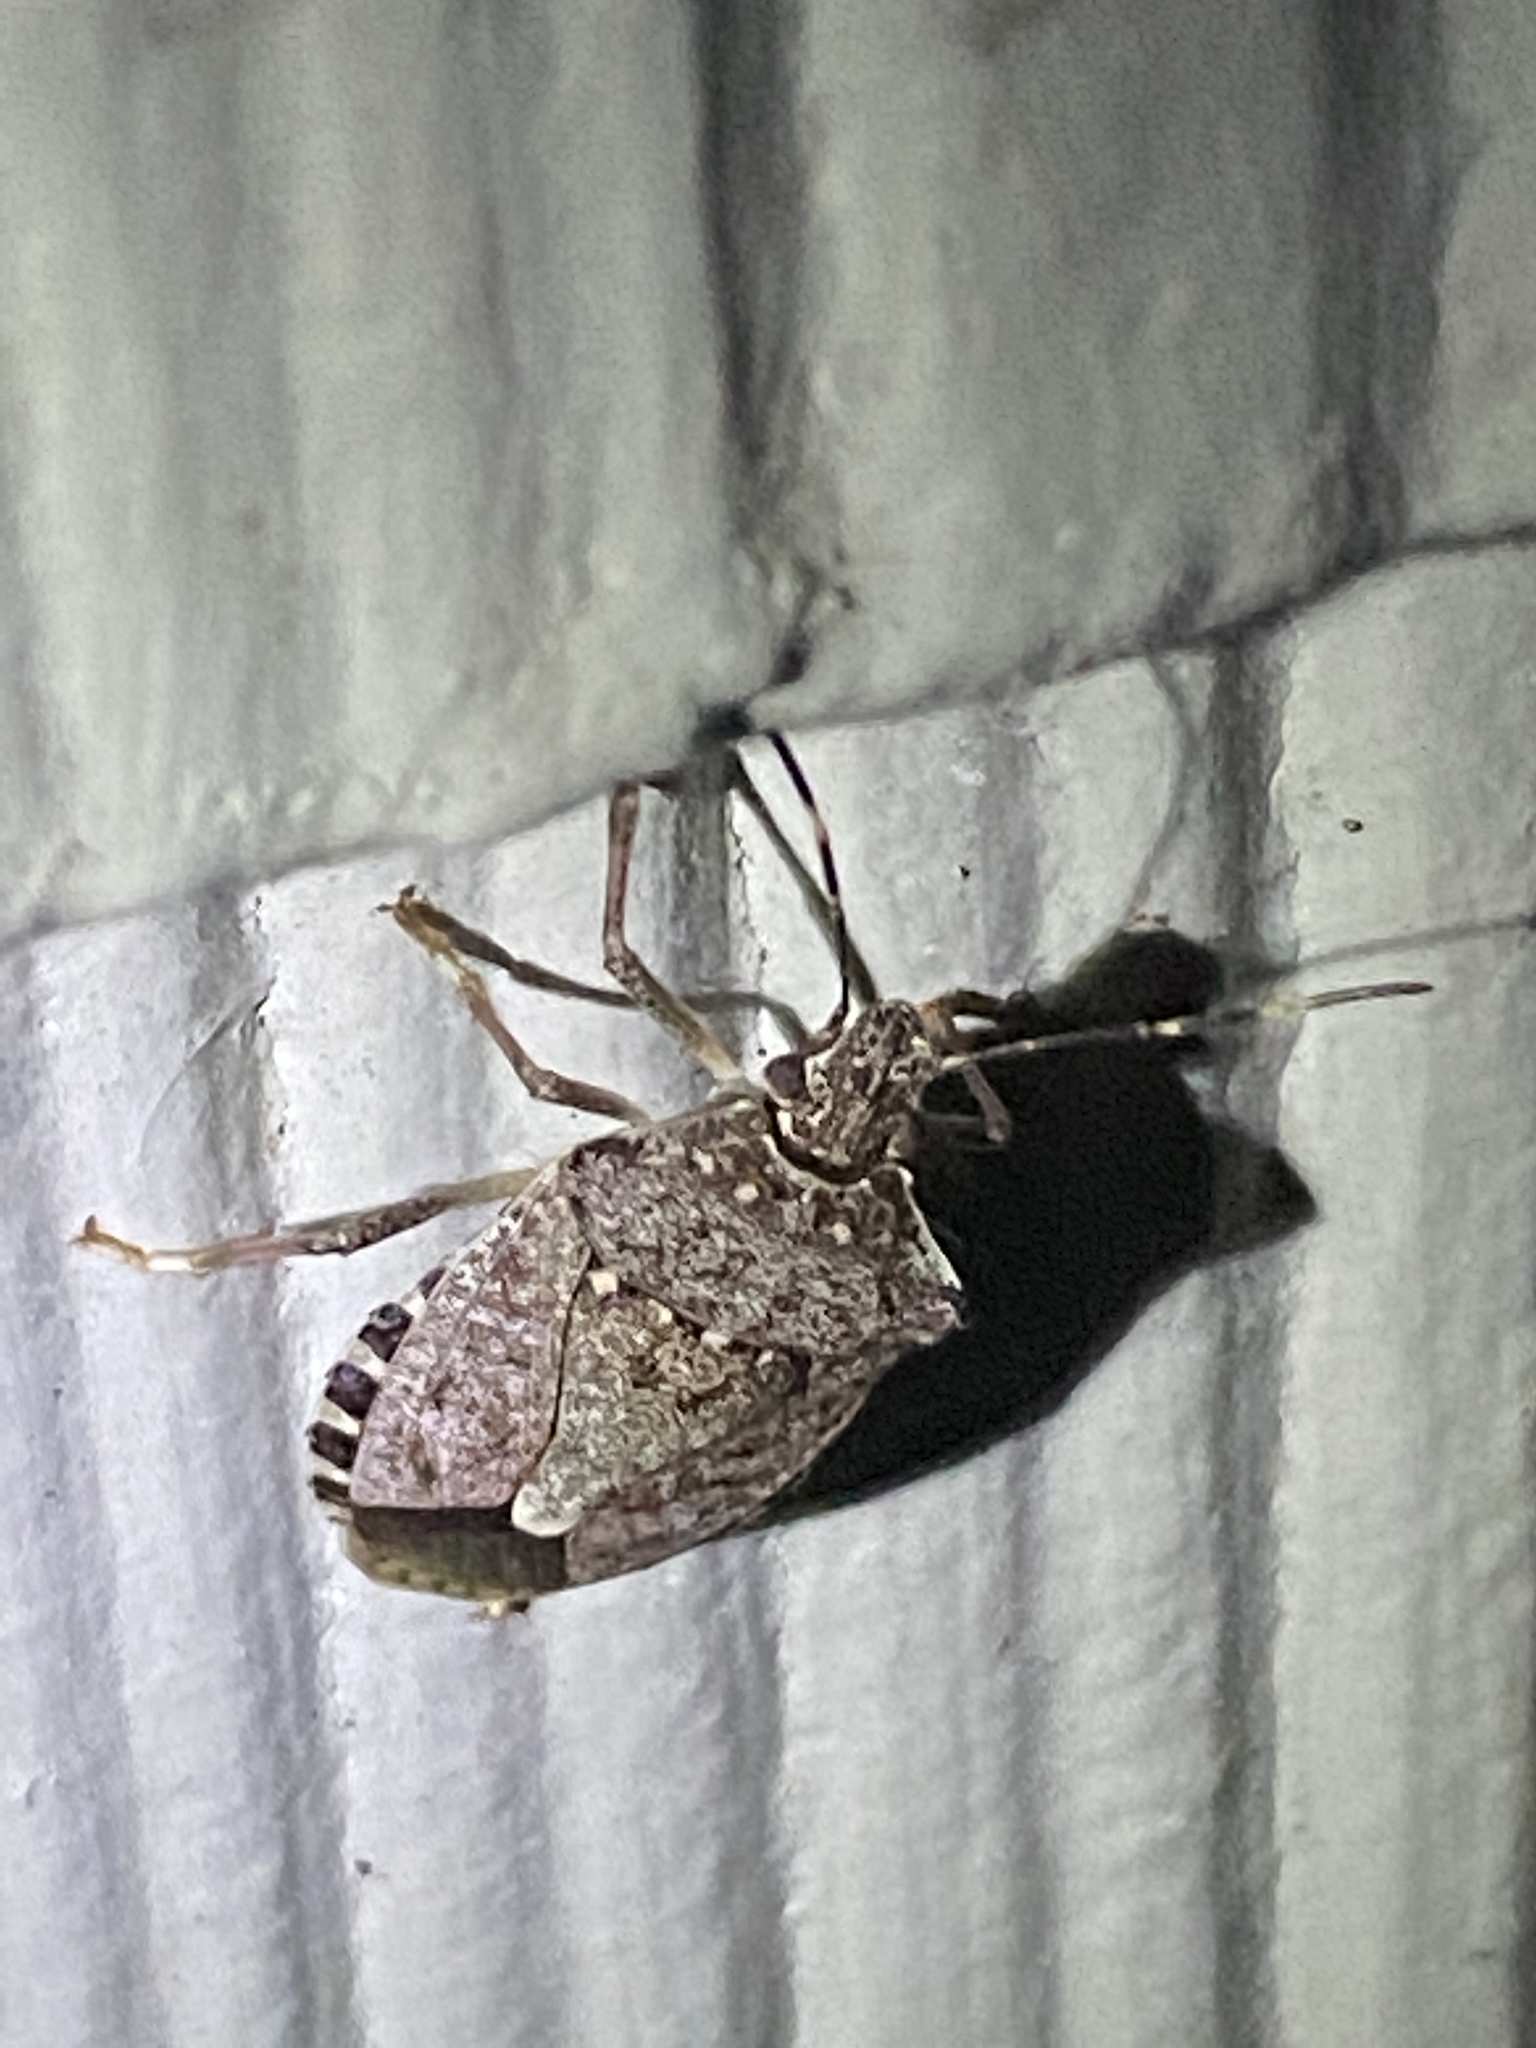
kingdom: Animalia
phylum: Arthropoda
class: Insecta
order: Hemiptera
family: Pentatomidae
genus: Halyomorpha
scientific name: Halyomorpha halys
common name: Brown marmorated stink bug
